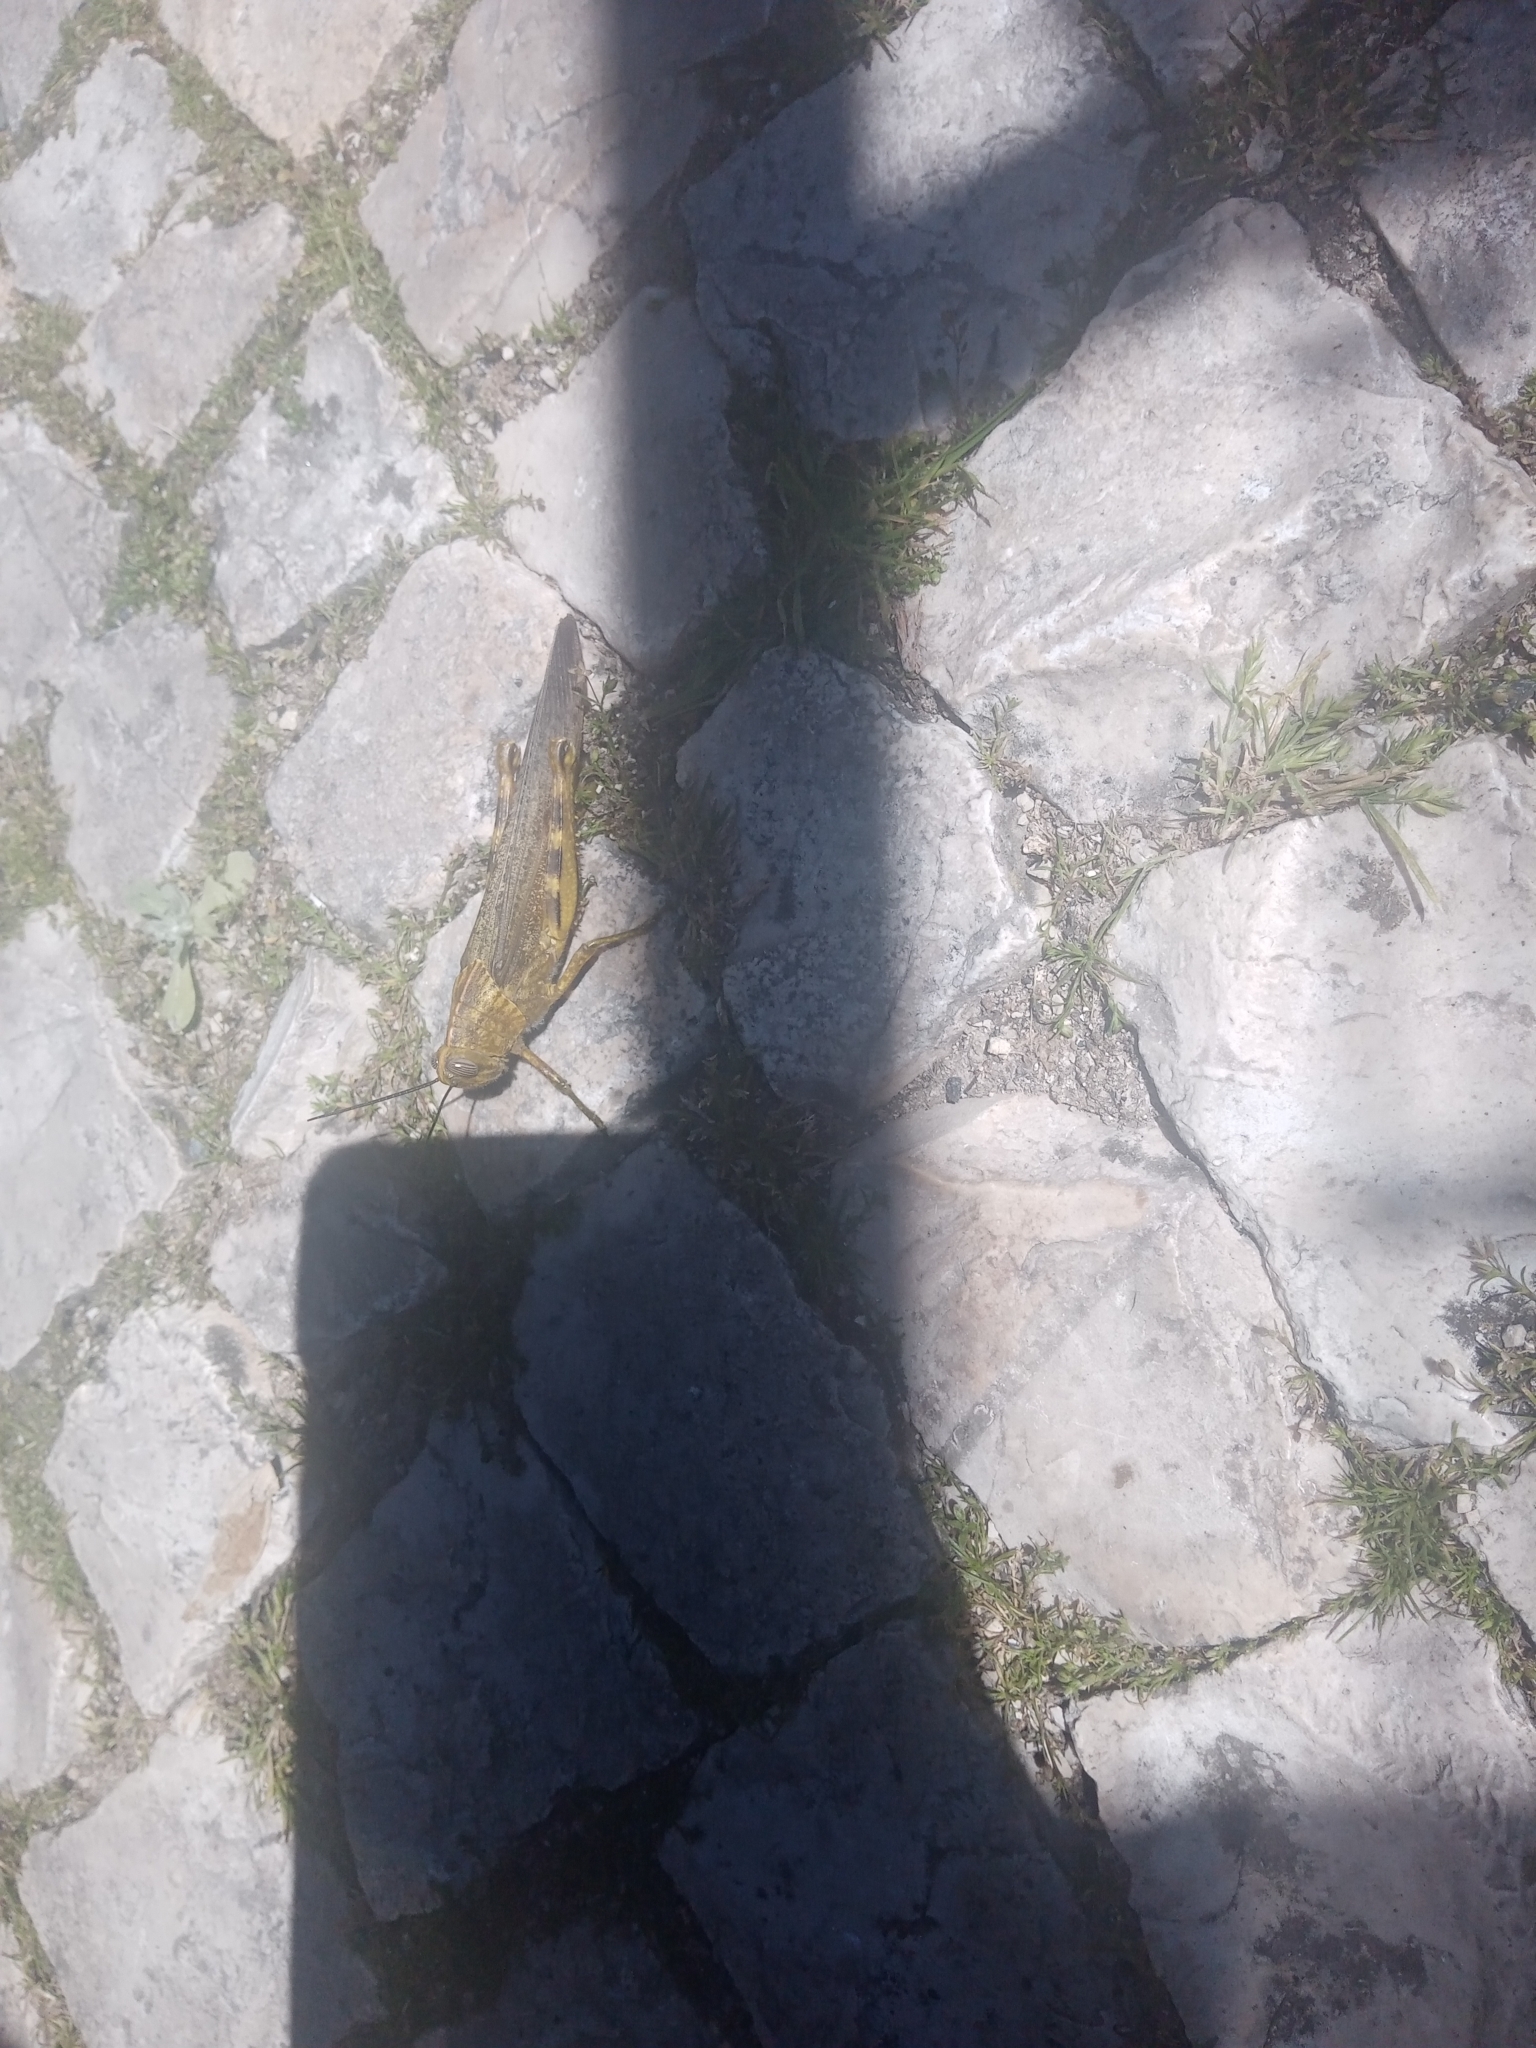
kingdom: Animalia
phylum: Arthropoda
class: Insecta
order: Orthoptera
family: Acrididae
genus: Anacridium
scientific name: Anacridium aegyptium
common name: Egyptian grasshopper
